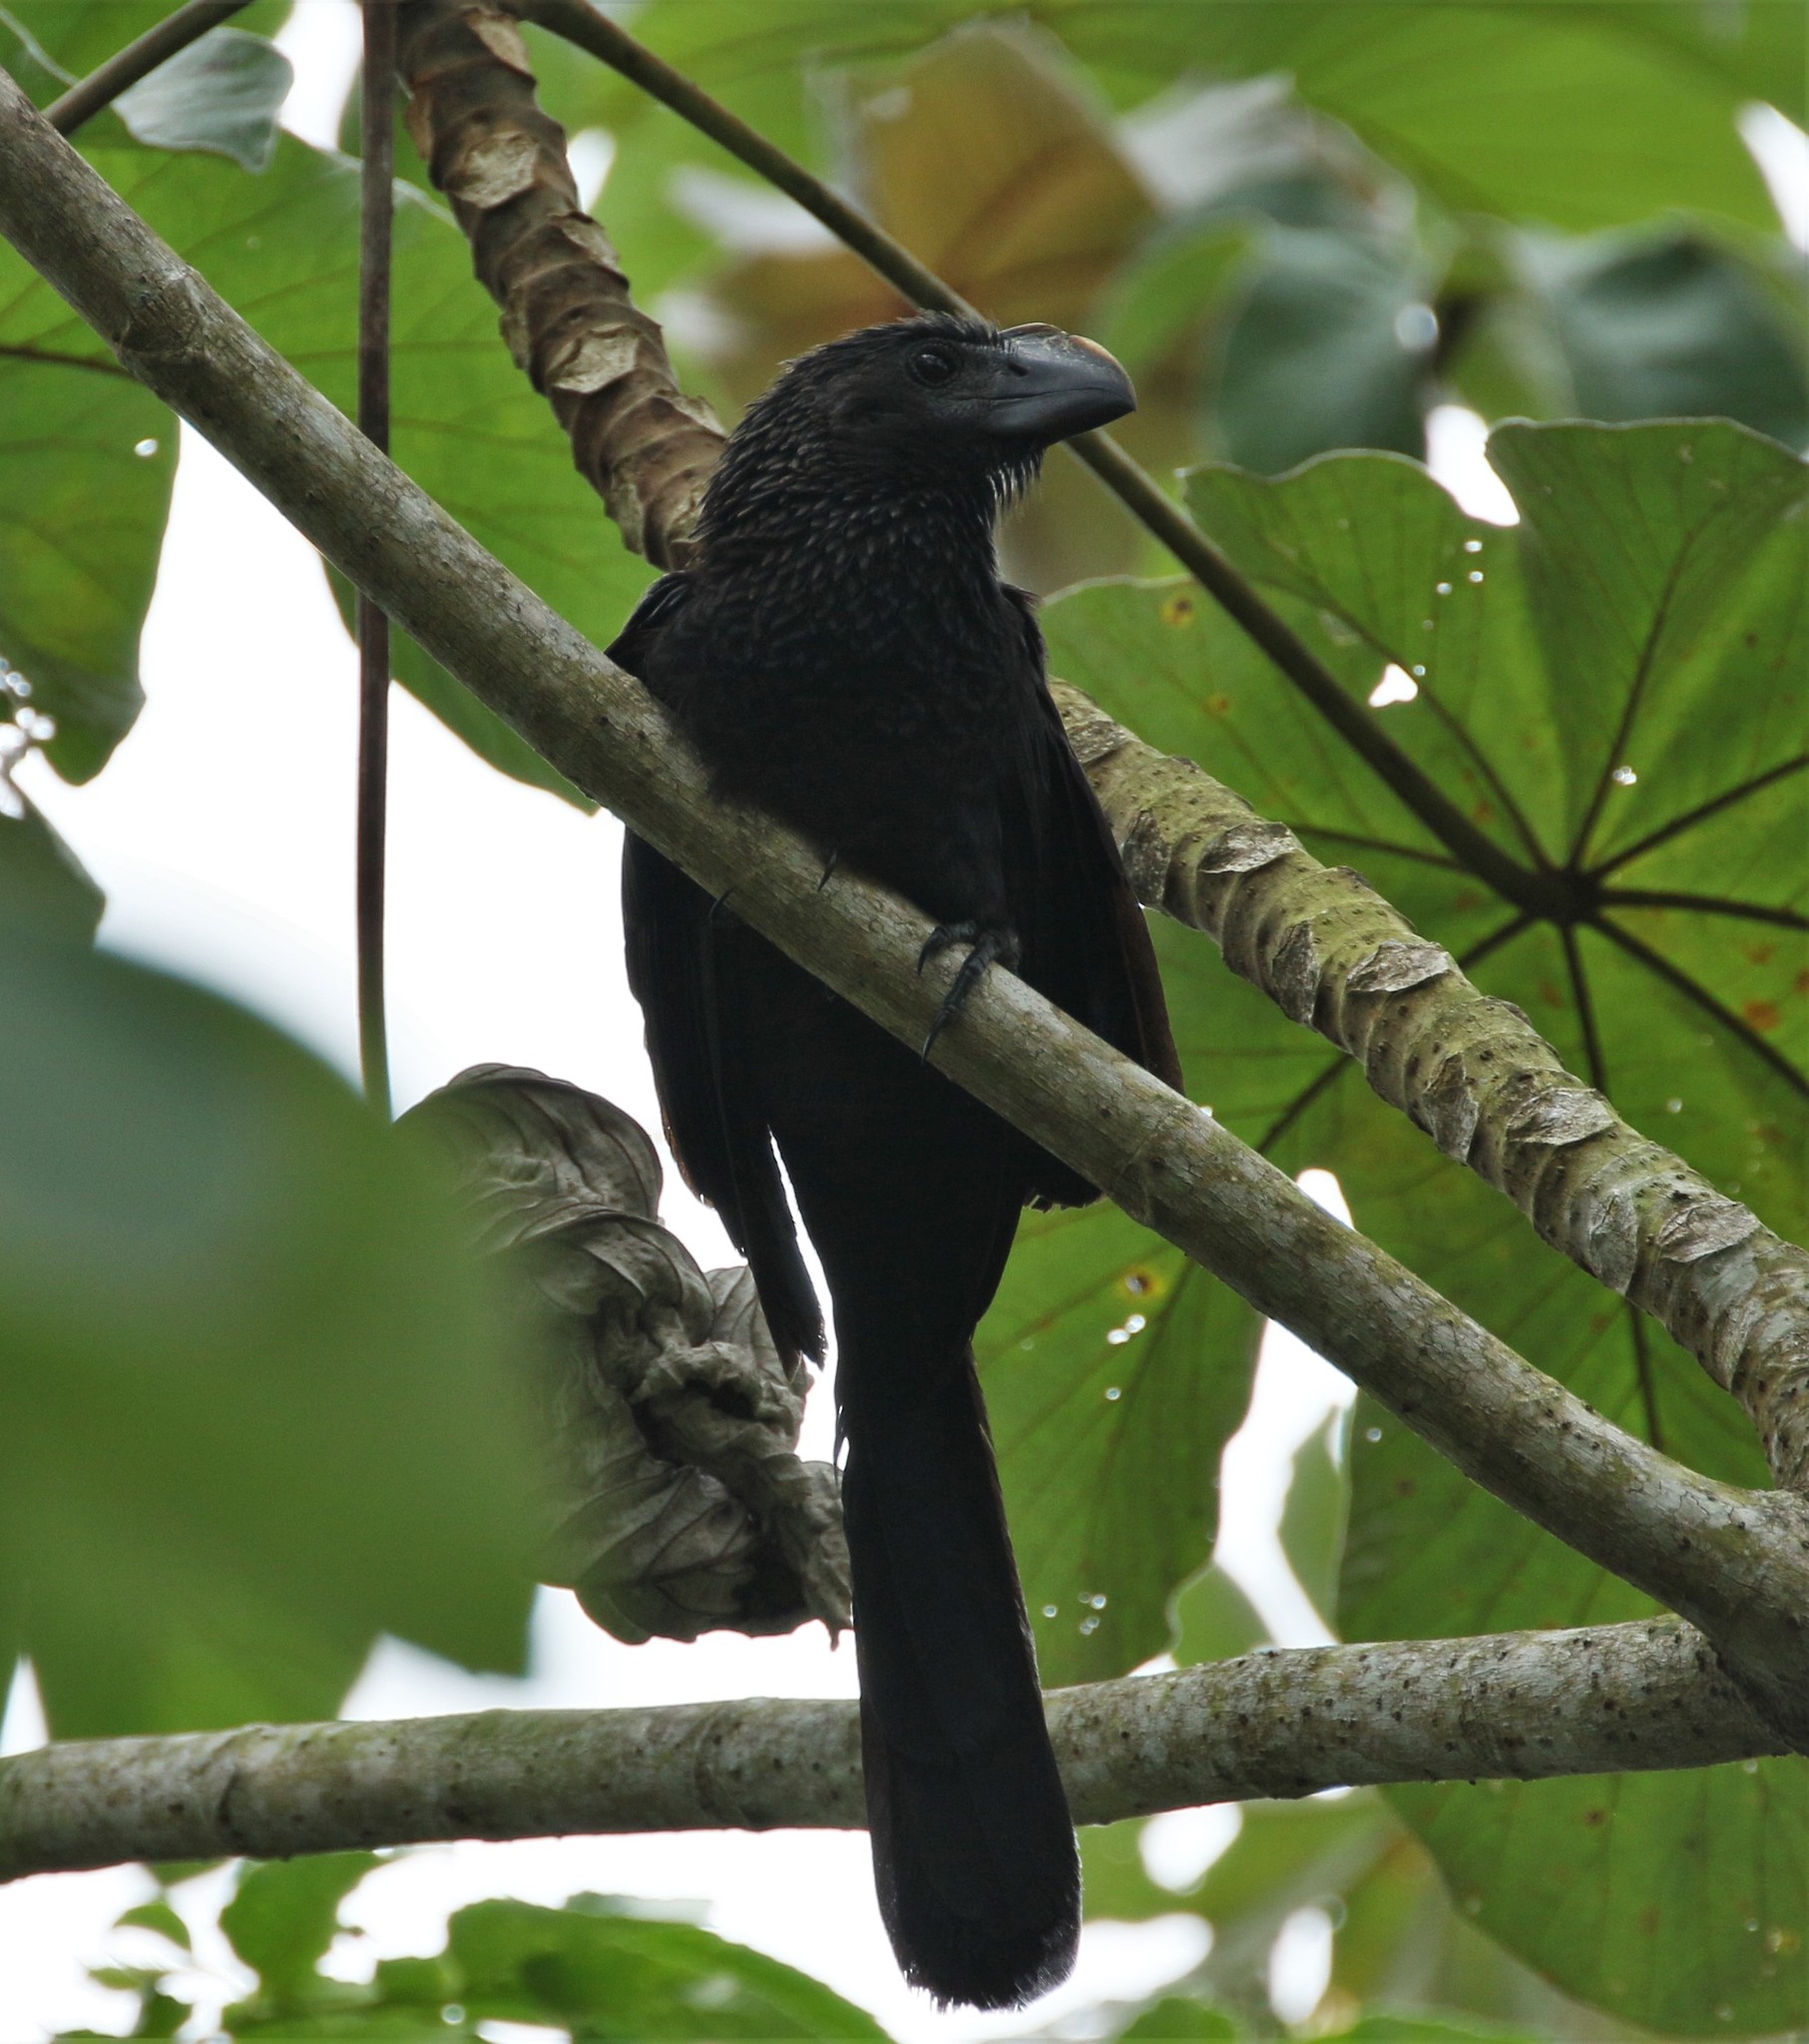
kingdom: Animalia
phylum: Chordata
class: Aves
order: Cuculiformes
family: Cuculidae
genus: Crotophaga
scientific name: Crotophaga ani
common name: Smooth-billed ani
